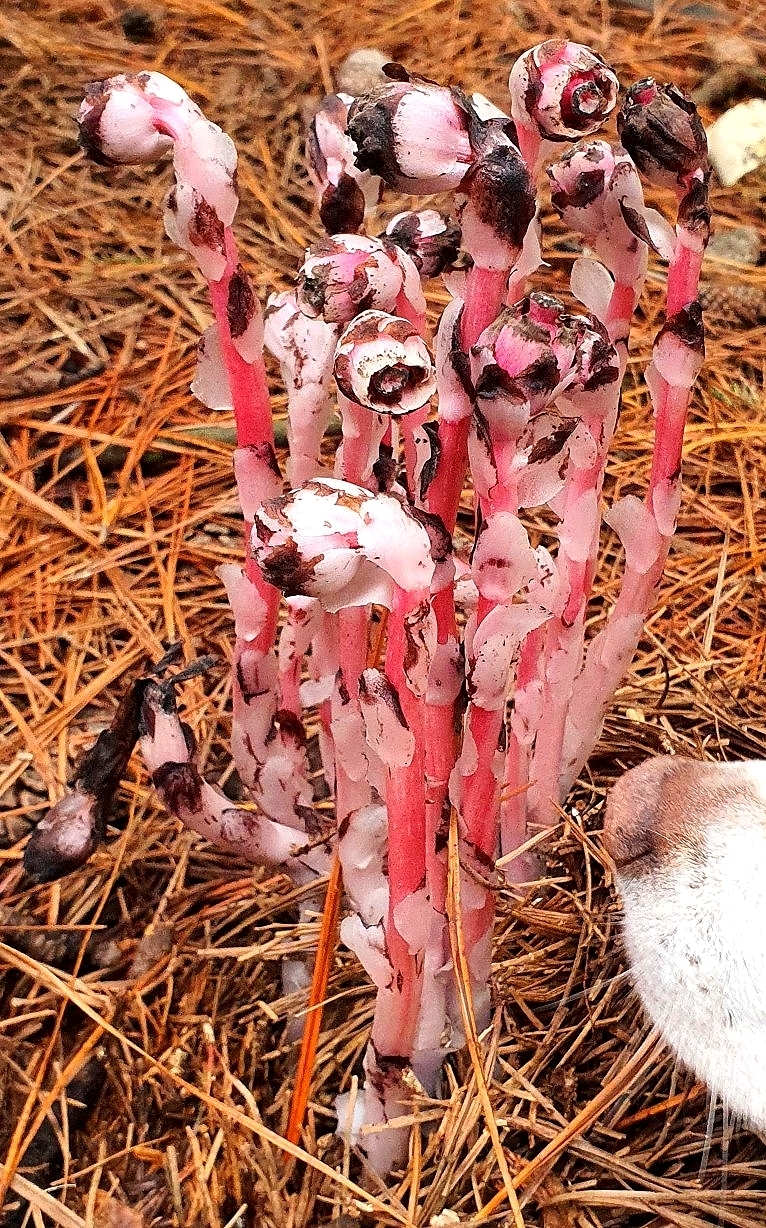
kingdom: Plantae
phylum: Tracheophyta
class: Magnoliopsida
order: Ericales
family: Ericaceae
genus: Monotropa
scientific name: Monotropa uniflora
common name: Convulsion root
